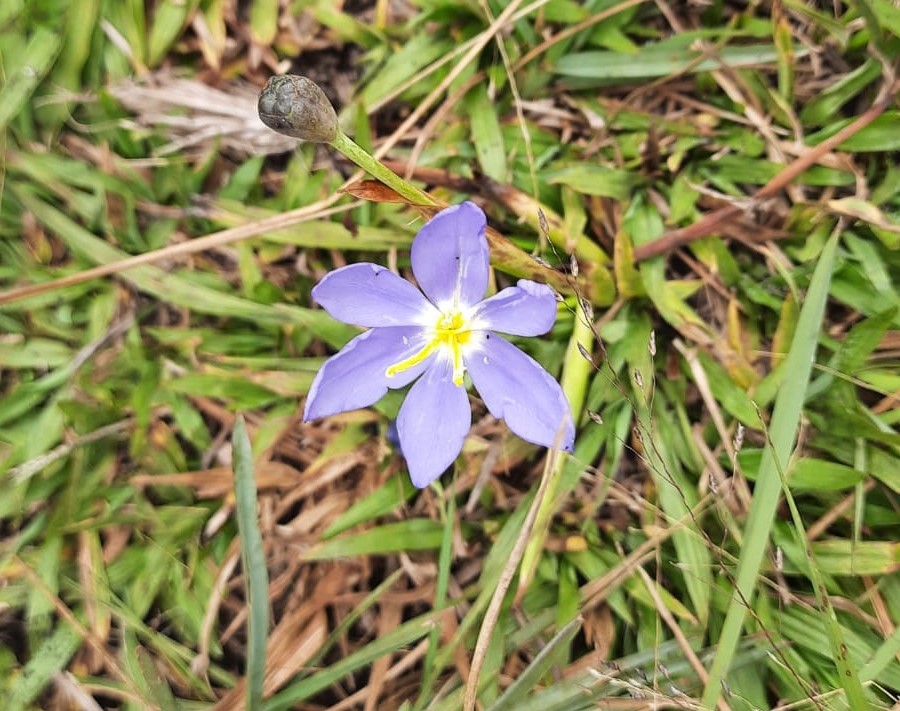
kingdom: Plantae
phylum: Tracheophyta
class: Liliopsida
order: Asparagales
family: Iridaceae
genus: Calydorea
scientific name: Calydorea crocoides
